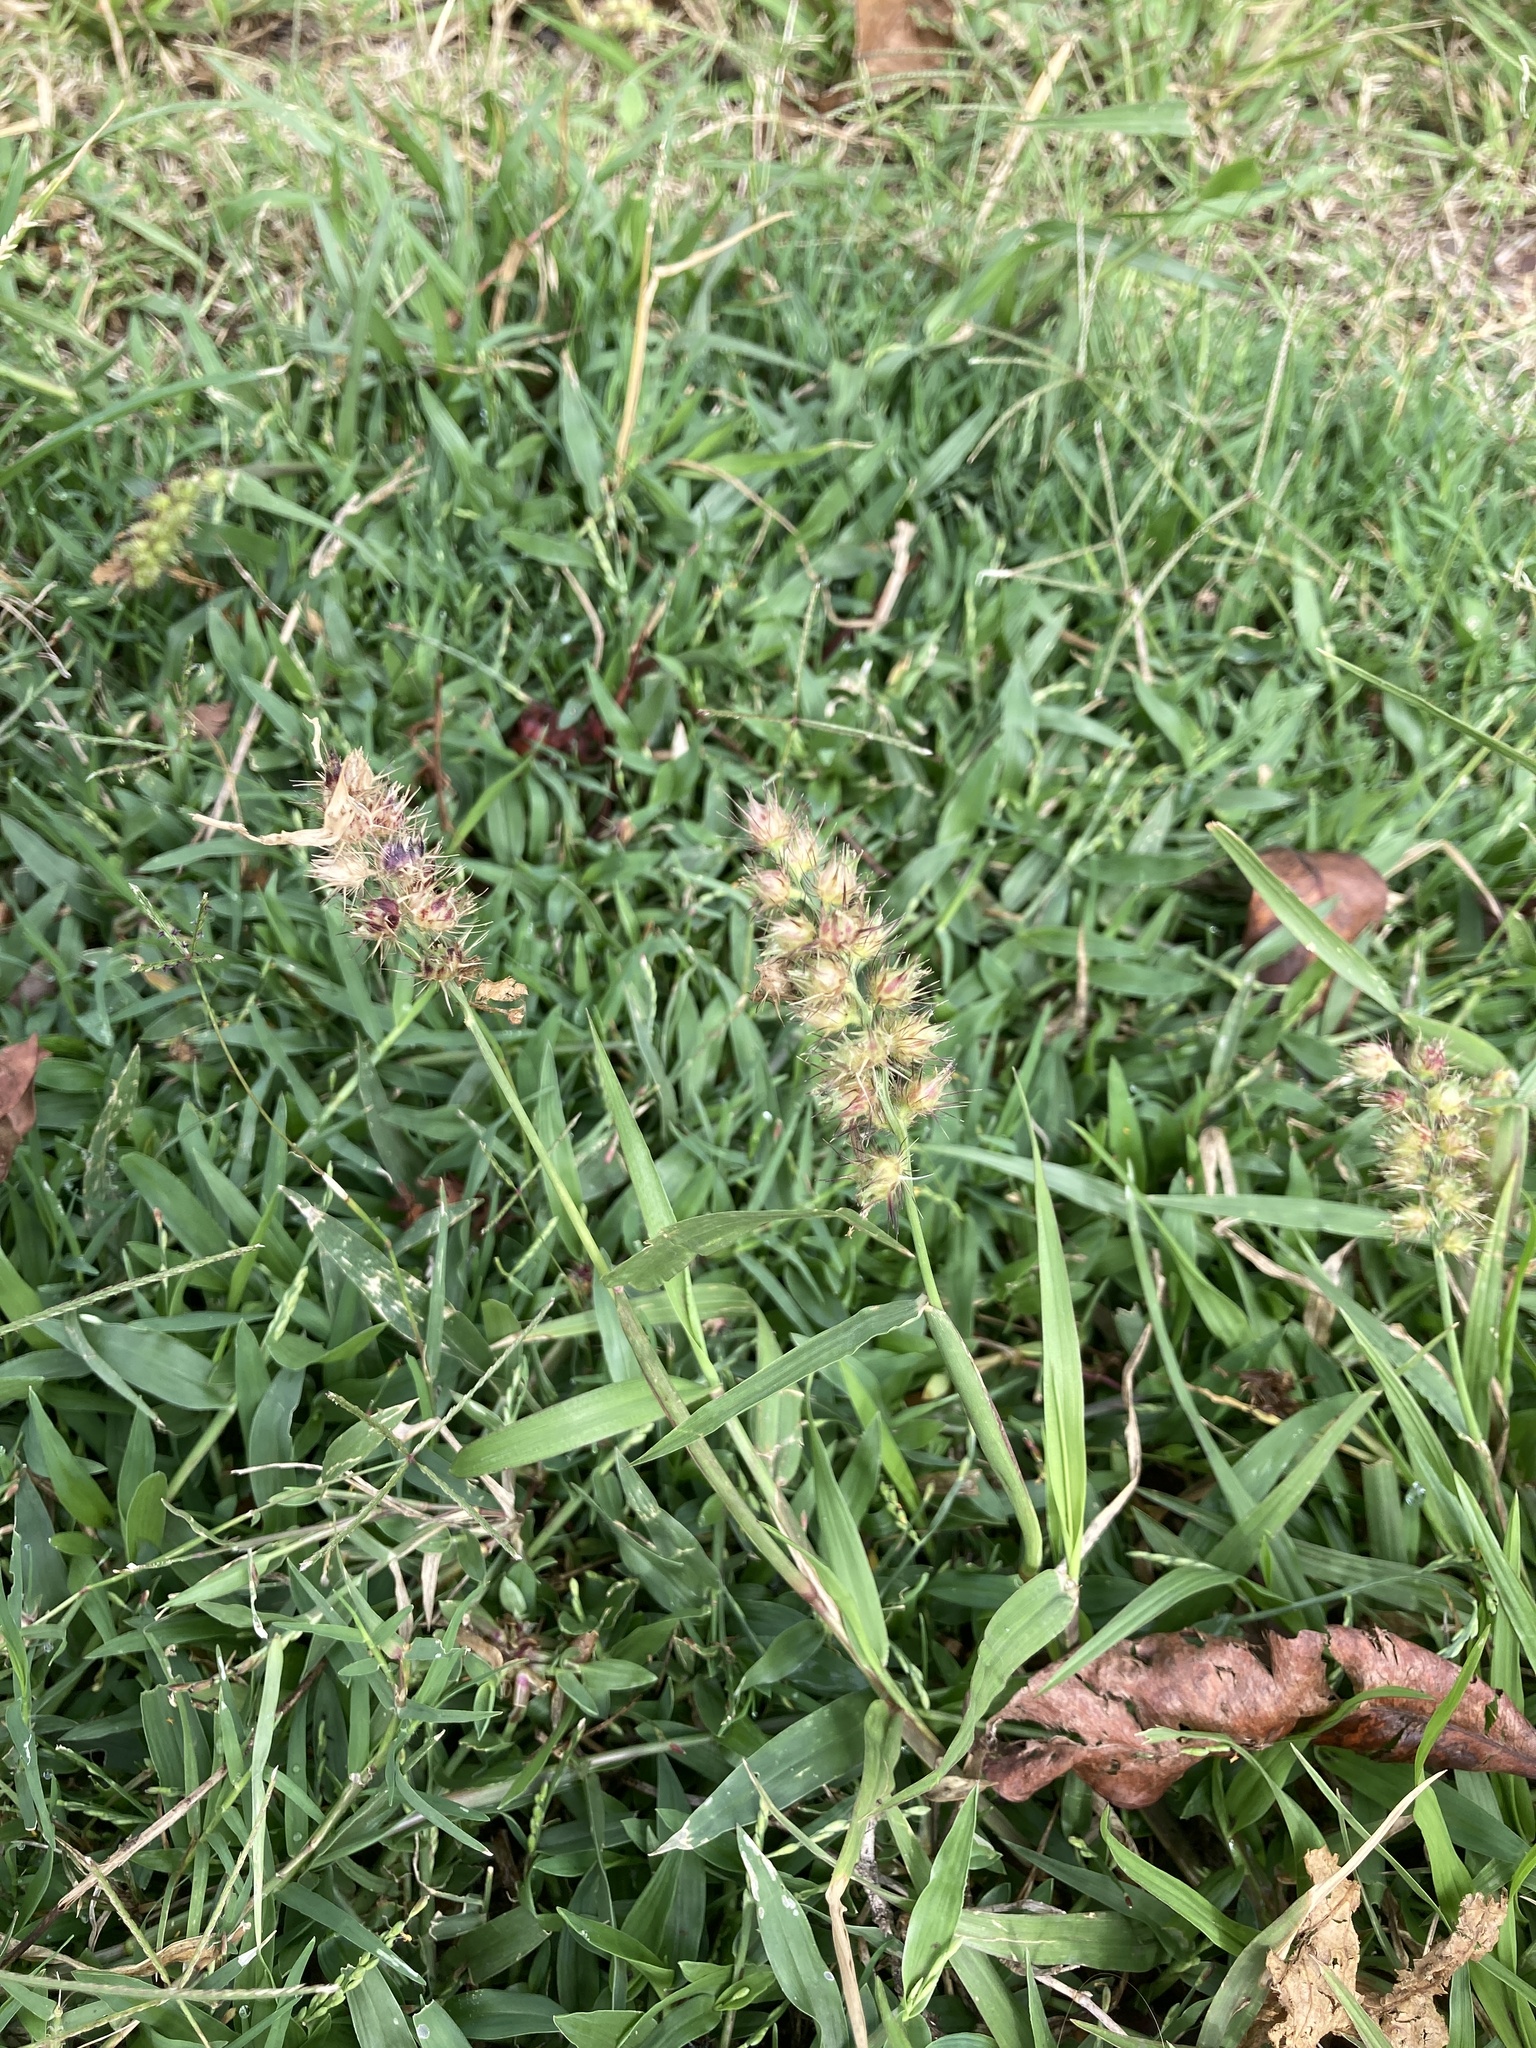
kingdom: Plantae
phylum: Tracheophyta
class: Liliopsida
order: Poales
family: Poaceae
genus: Cenchrus
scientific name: Cenchrus echinatus
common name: Southern sandbur
